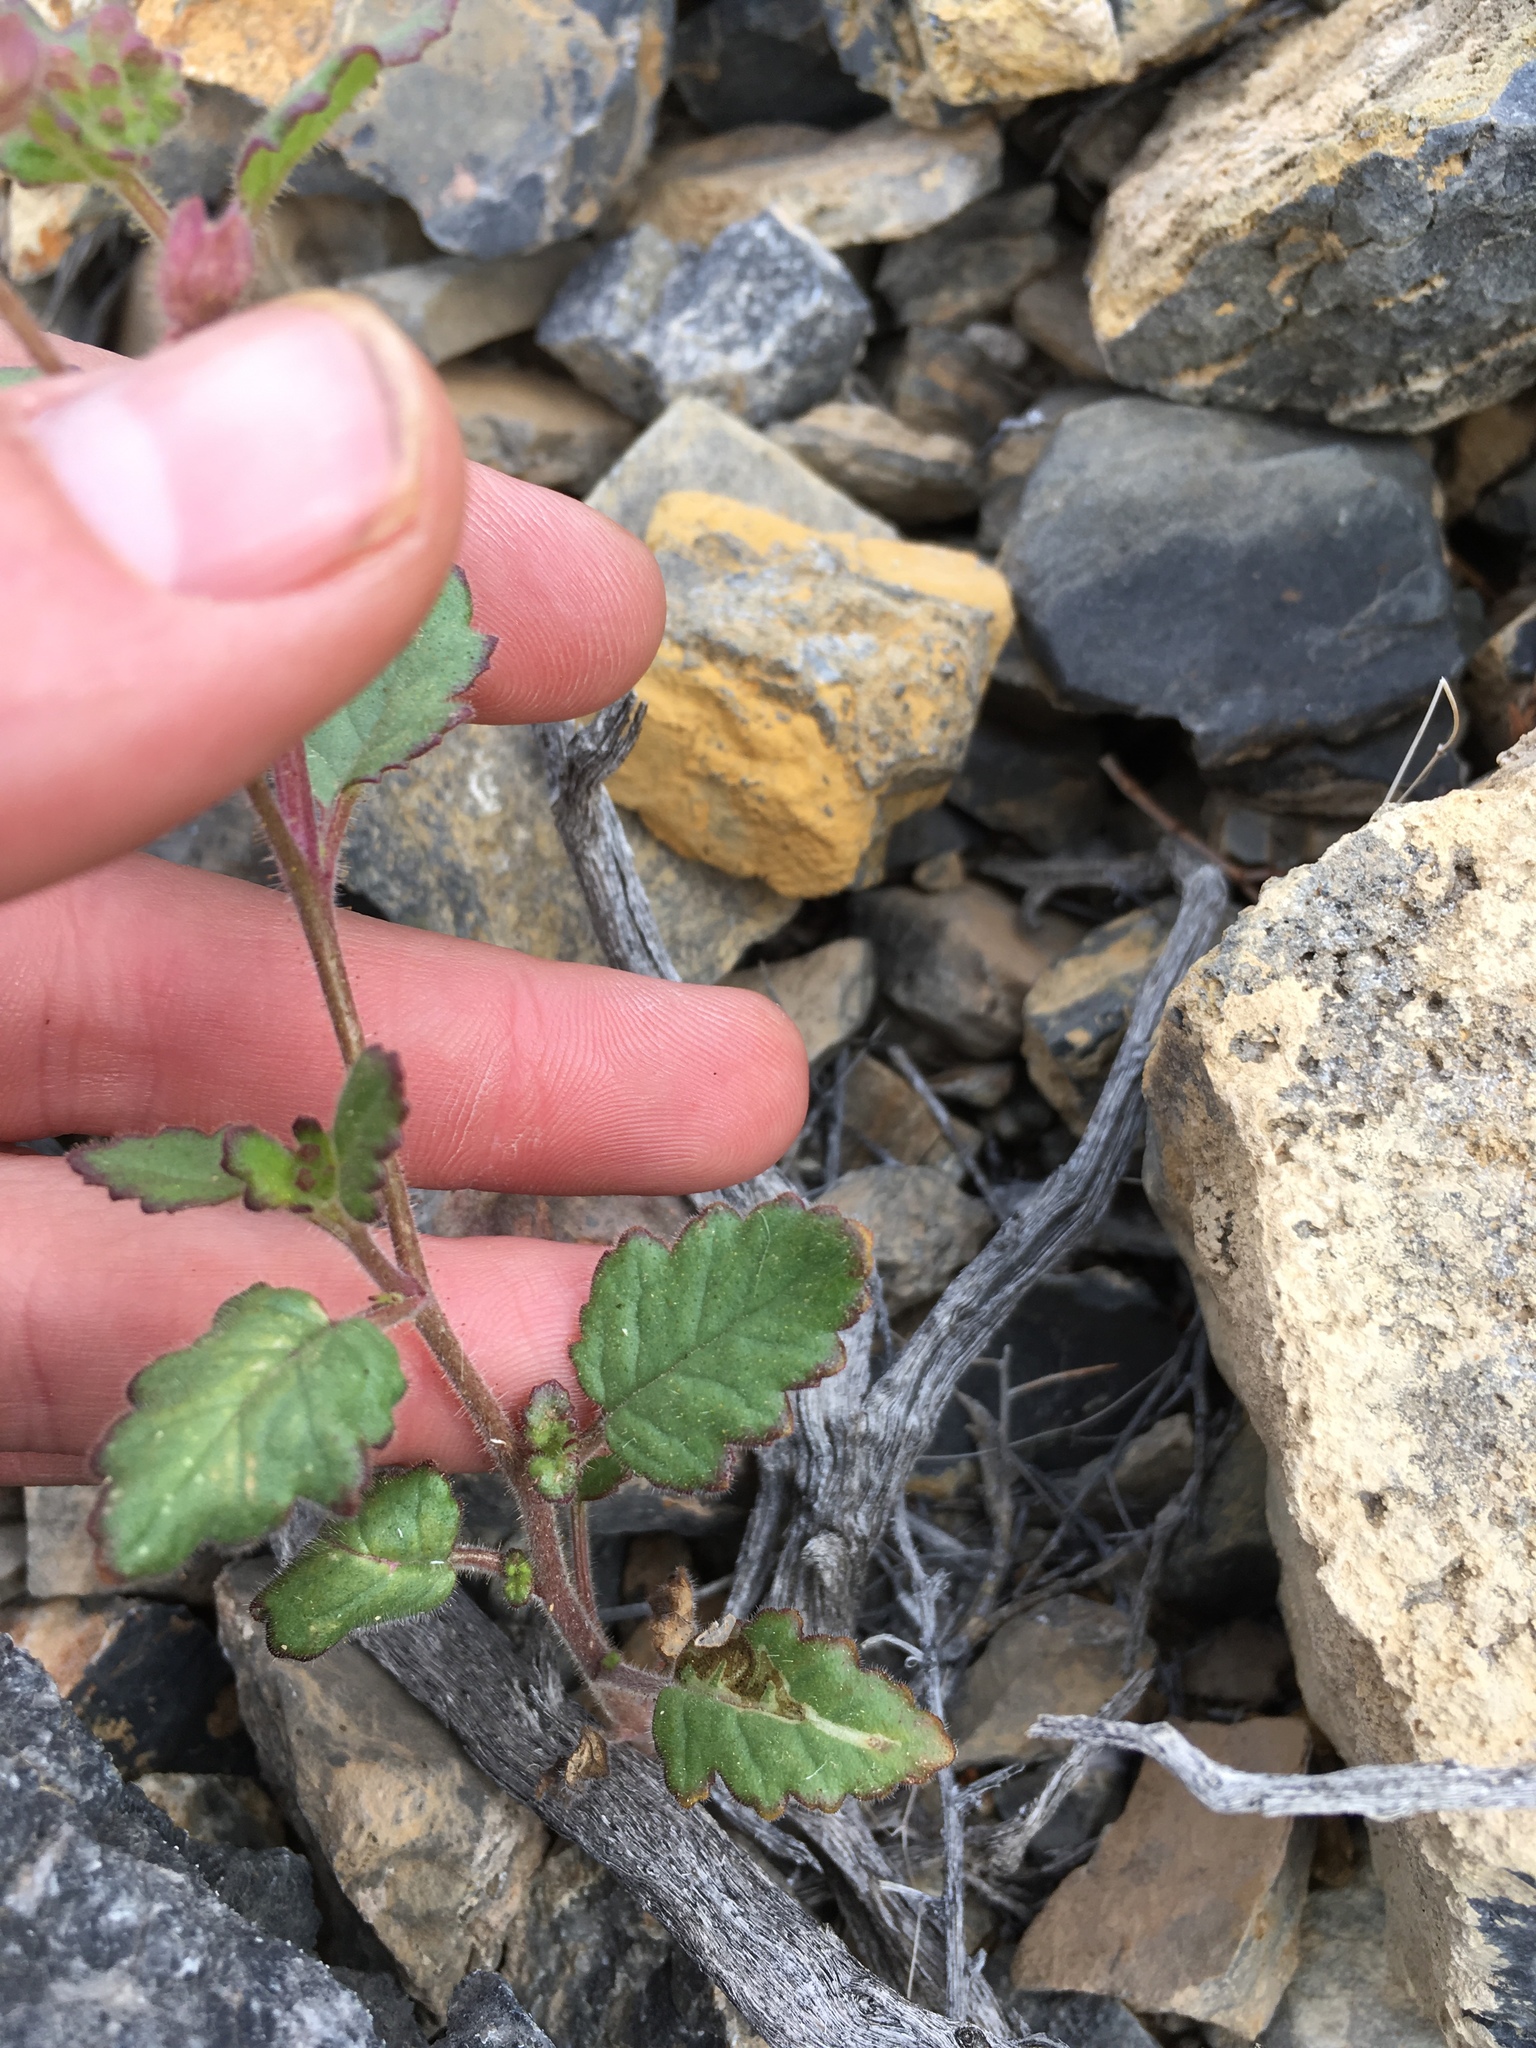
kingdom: Plantae
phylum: Tracheophyta
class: Magnoliopsida
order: Boraginales
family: Hydrophyllaceae
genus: Phacelia
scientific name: Phacelia crenulata
